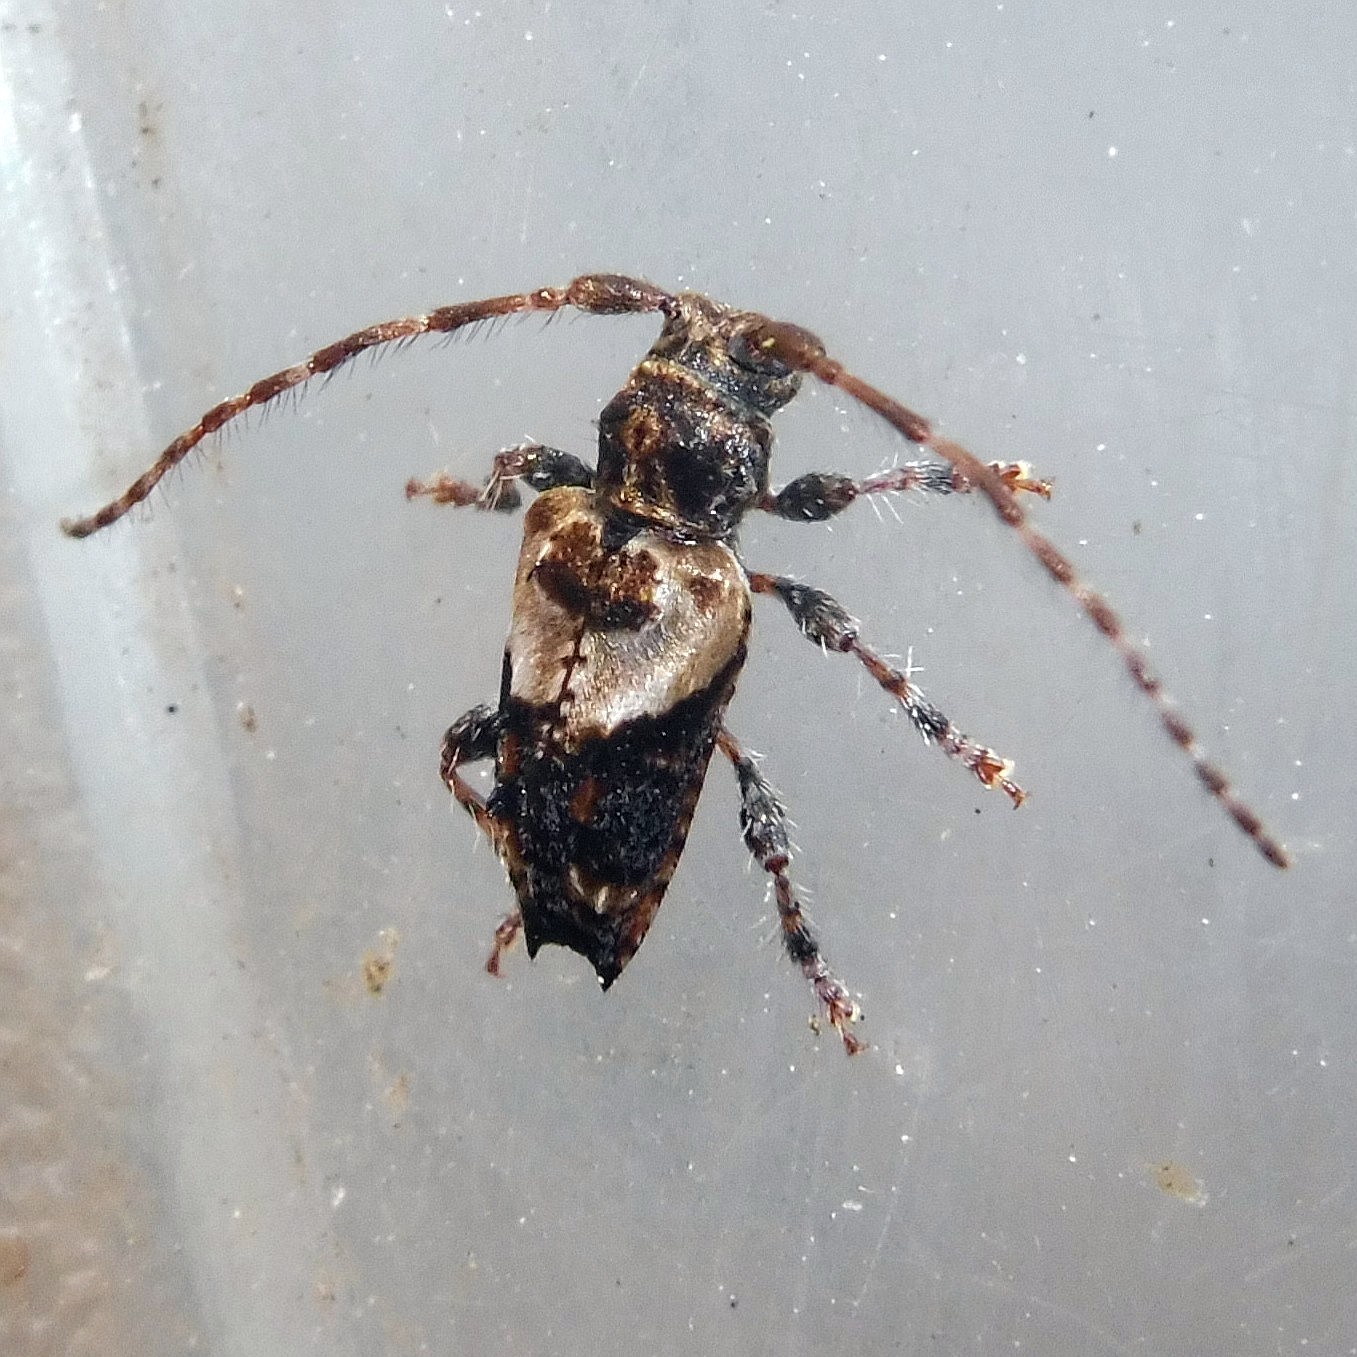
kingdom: Animalia
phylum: Arthropoda
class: Insecta
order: Coleoptera
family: Cerambycidae
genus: Pogonocherus
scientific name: Pogonocherus hispidus
